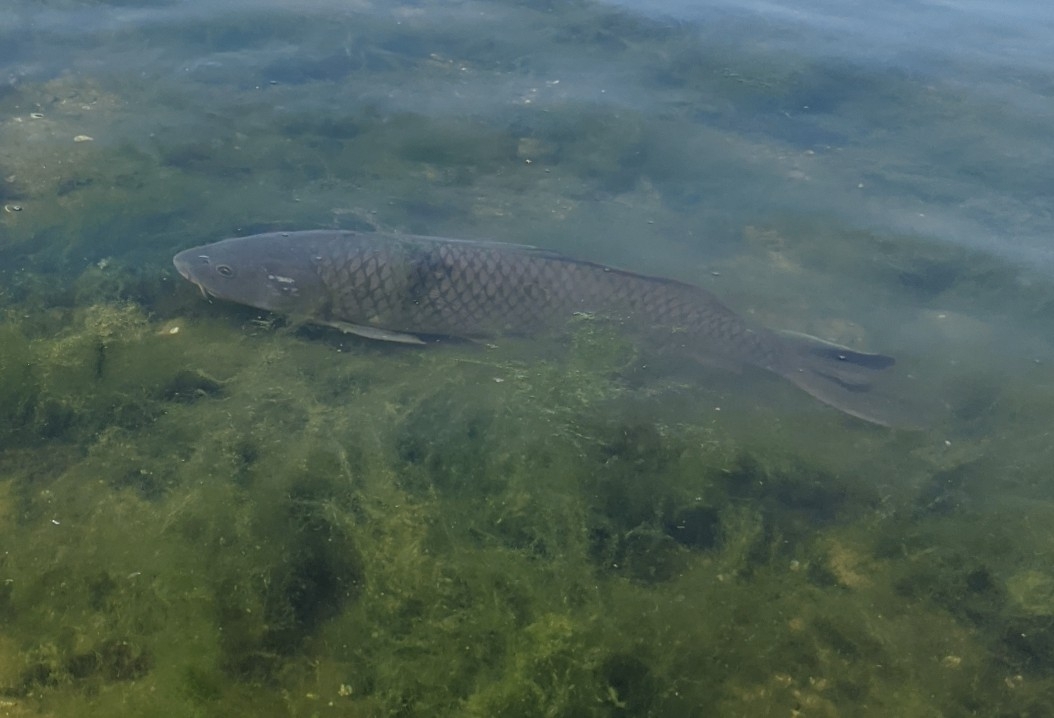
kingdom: Animalia
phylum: Chordata
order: Cypriniformes
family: Cyprinidae
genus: Cyprinus
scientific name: Cyprinus carpio
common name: Common carp
